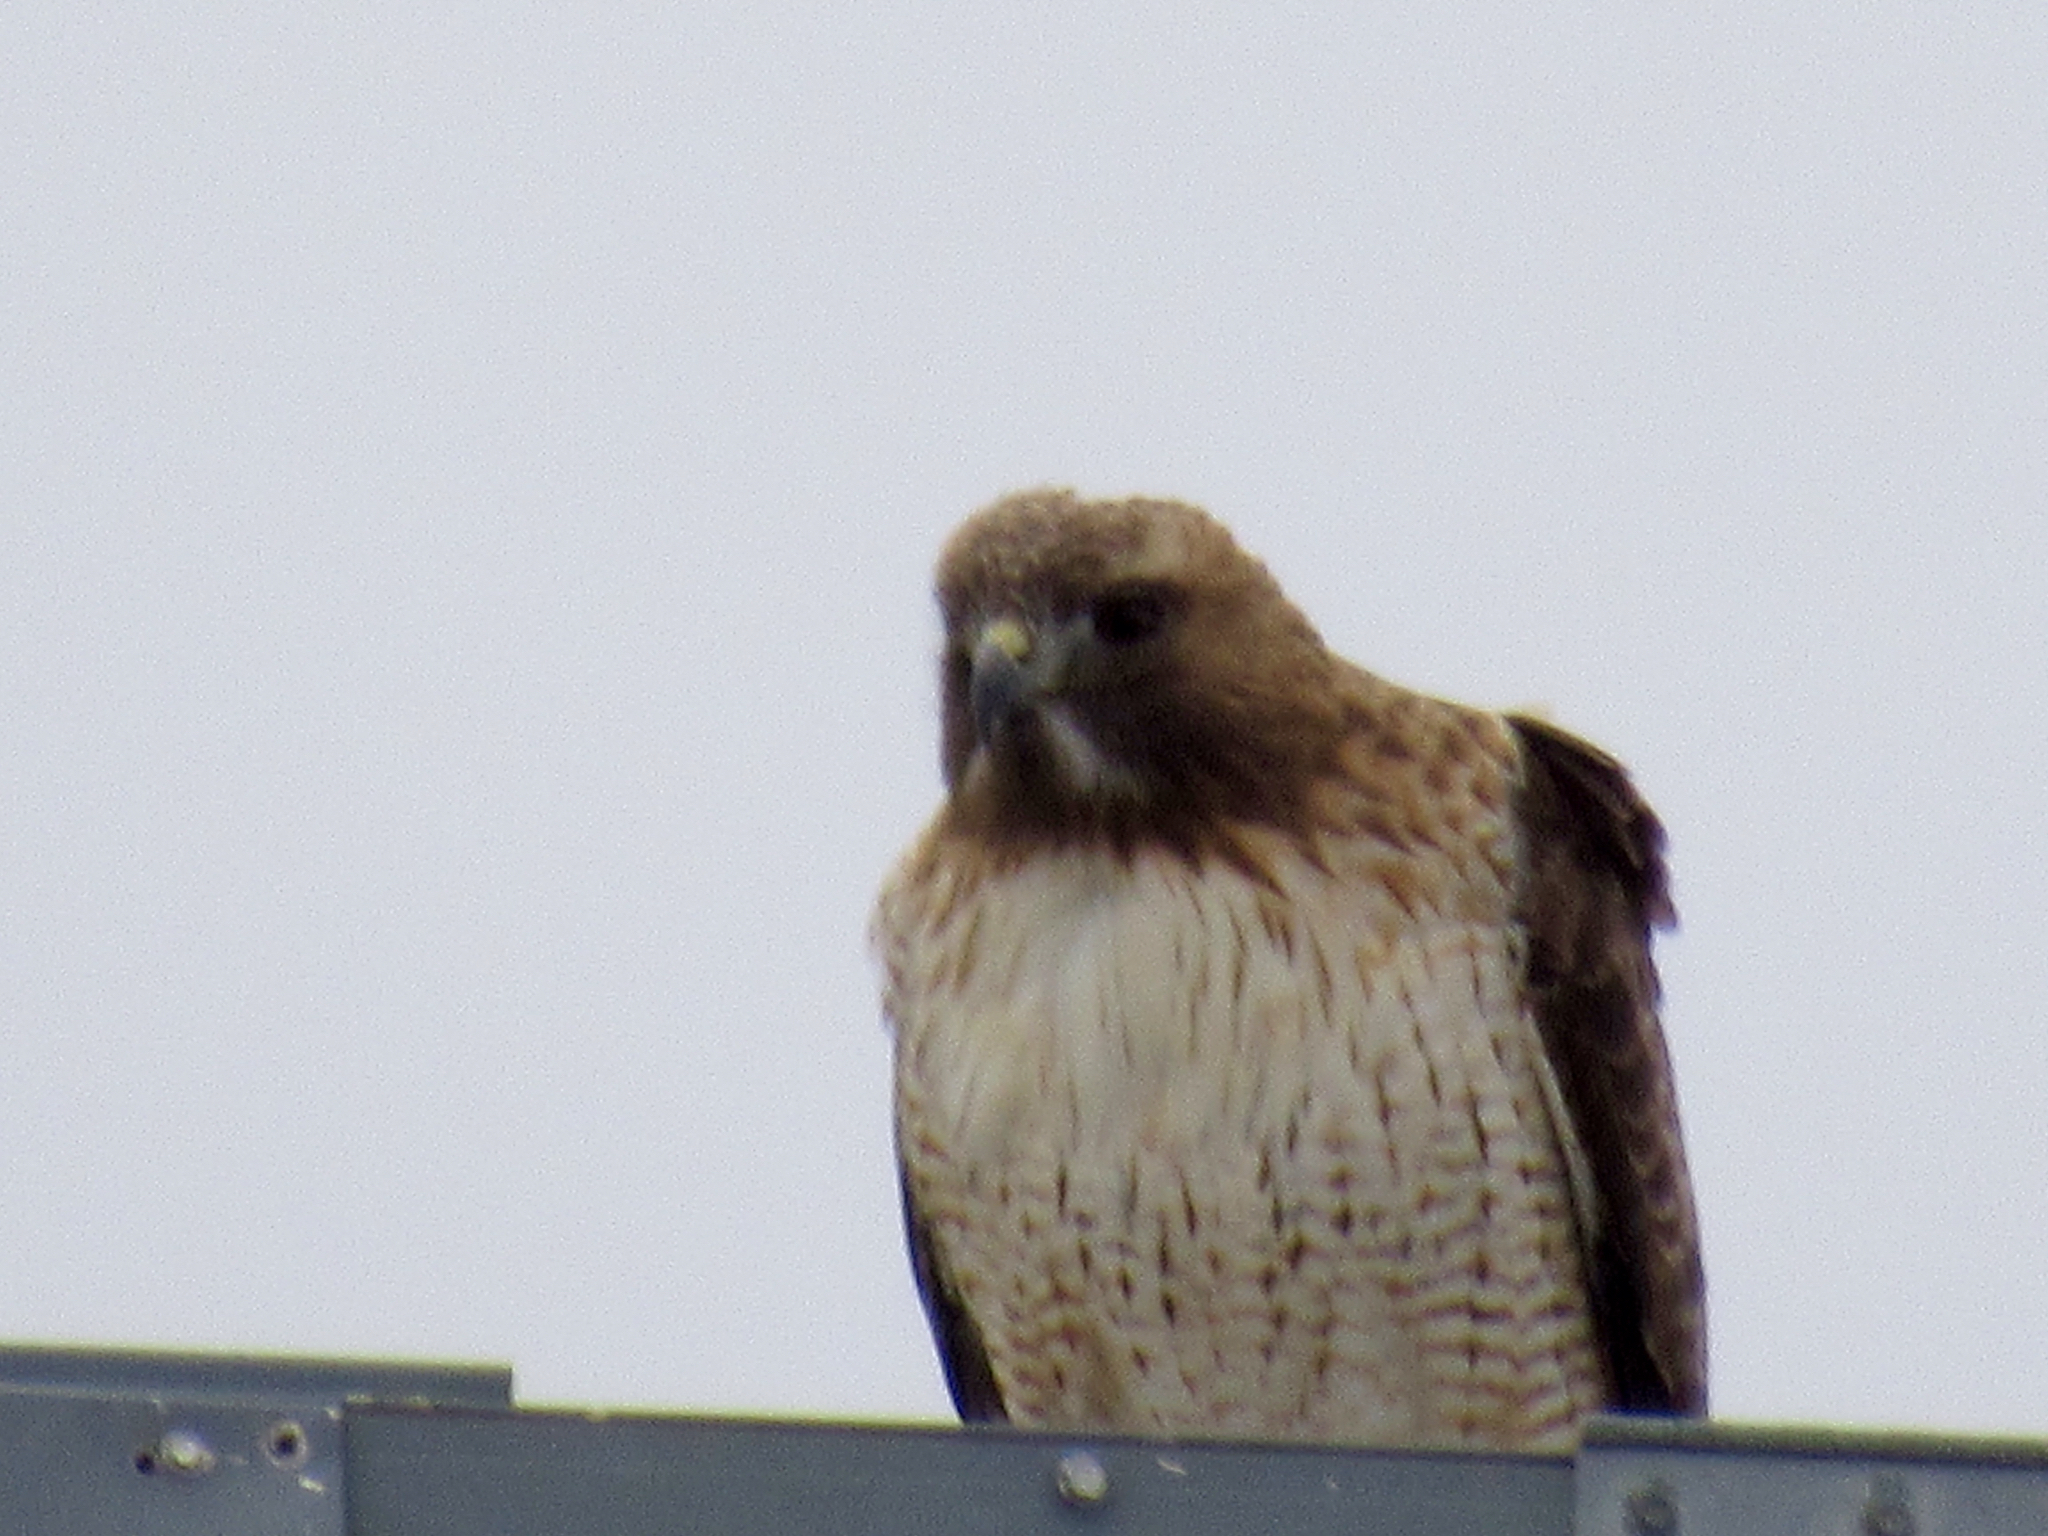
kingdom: Animalia
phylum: Chordata
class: Aves
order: Accipitriformes
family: Accipitridae
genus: Buteo
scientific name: Buteo jamaicensis
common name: Red-tailed hawk
